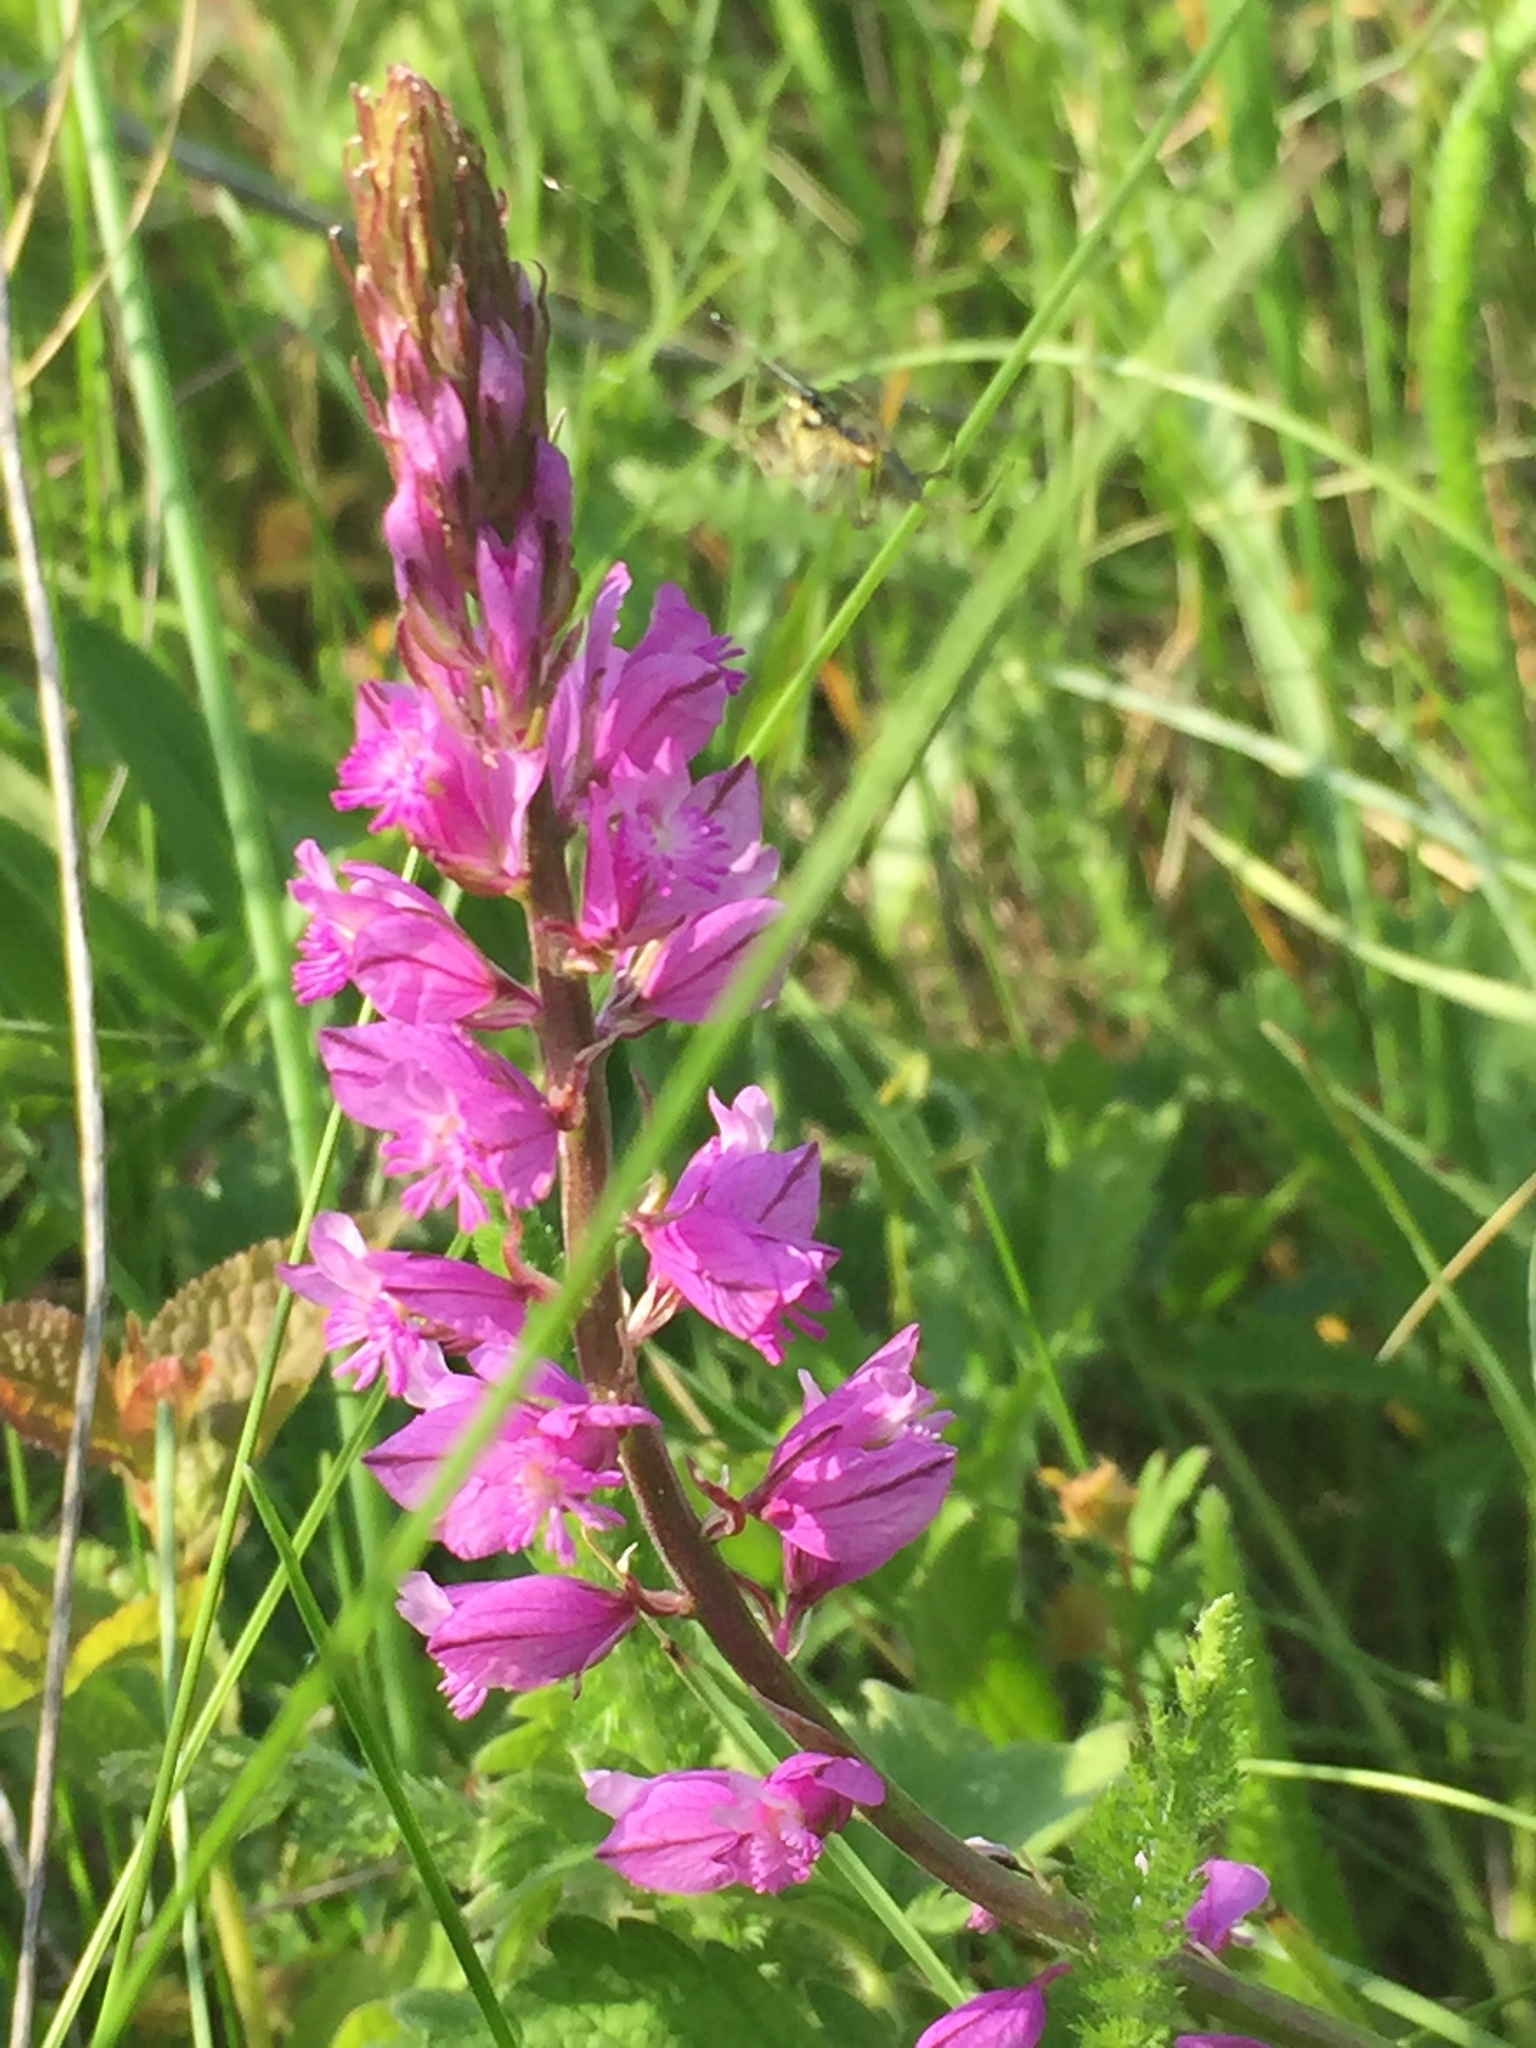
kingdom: Plantae
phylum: Tracheophyta
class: Magnoliopsida
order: Fabales
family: Polygalaceae
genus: Polygala
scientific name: Polygala nicaeensis
